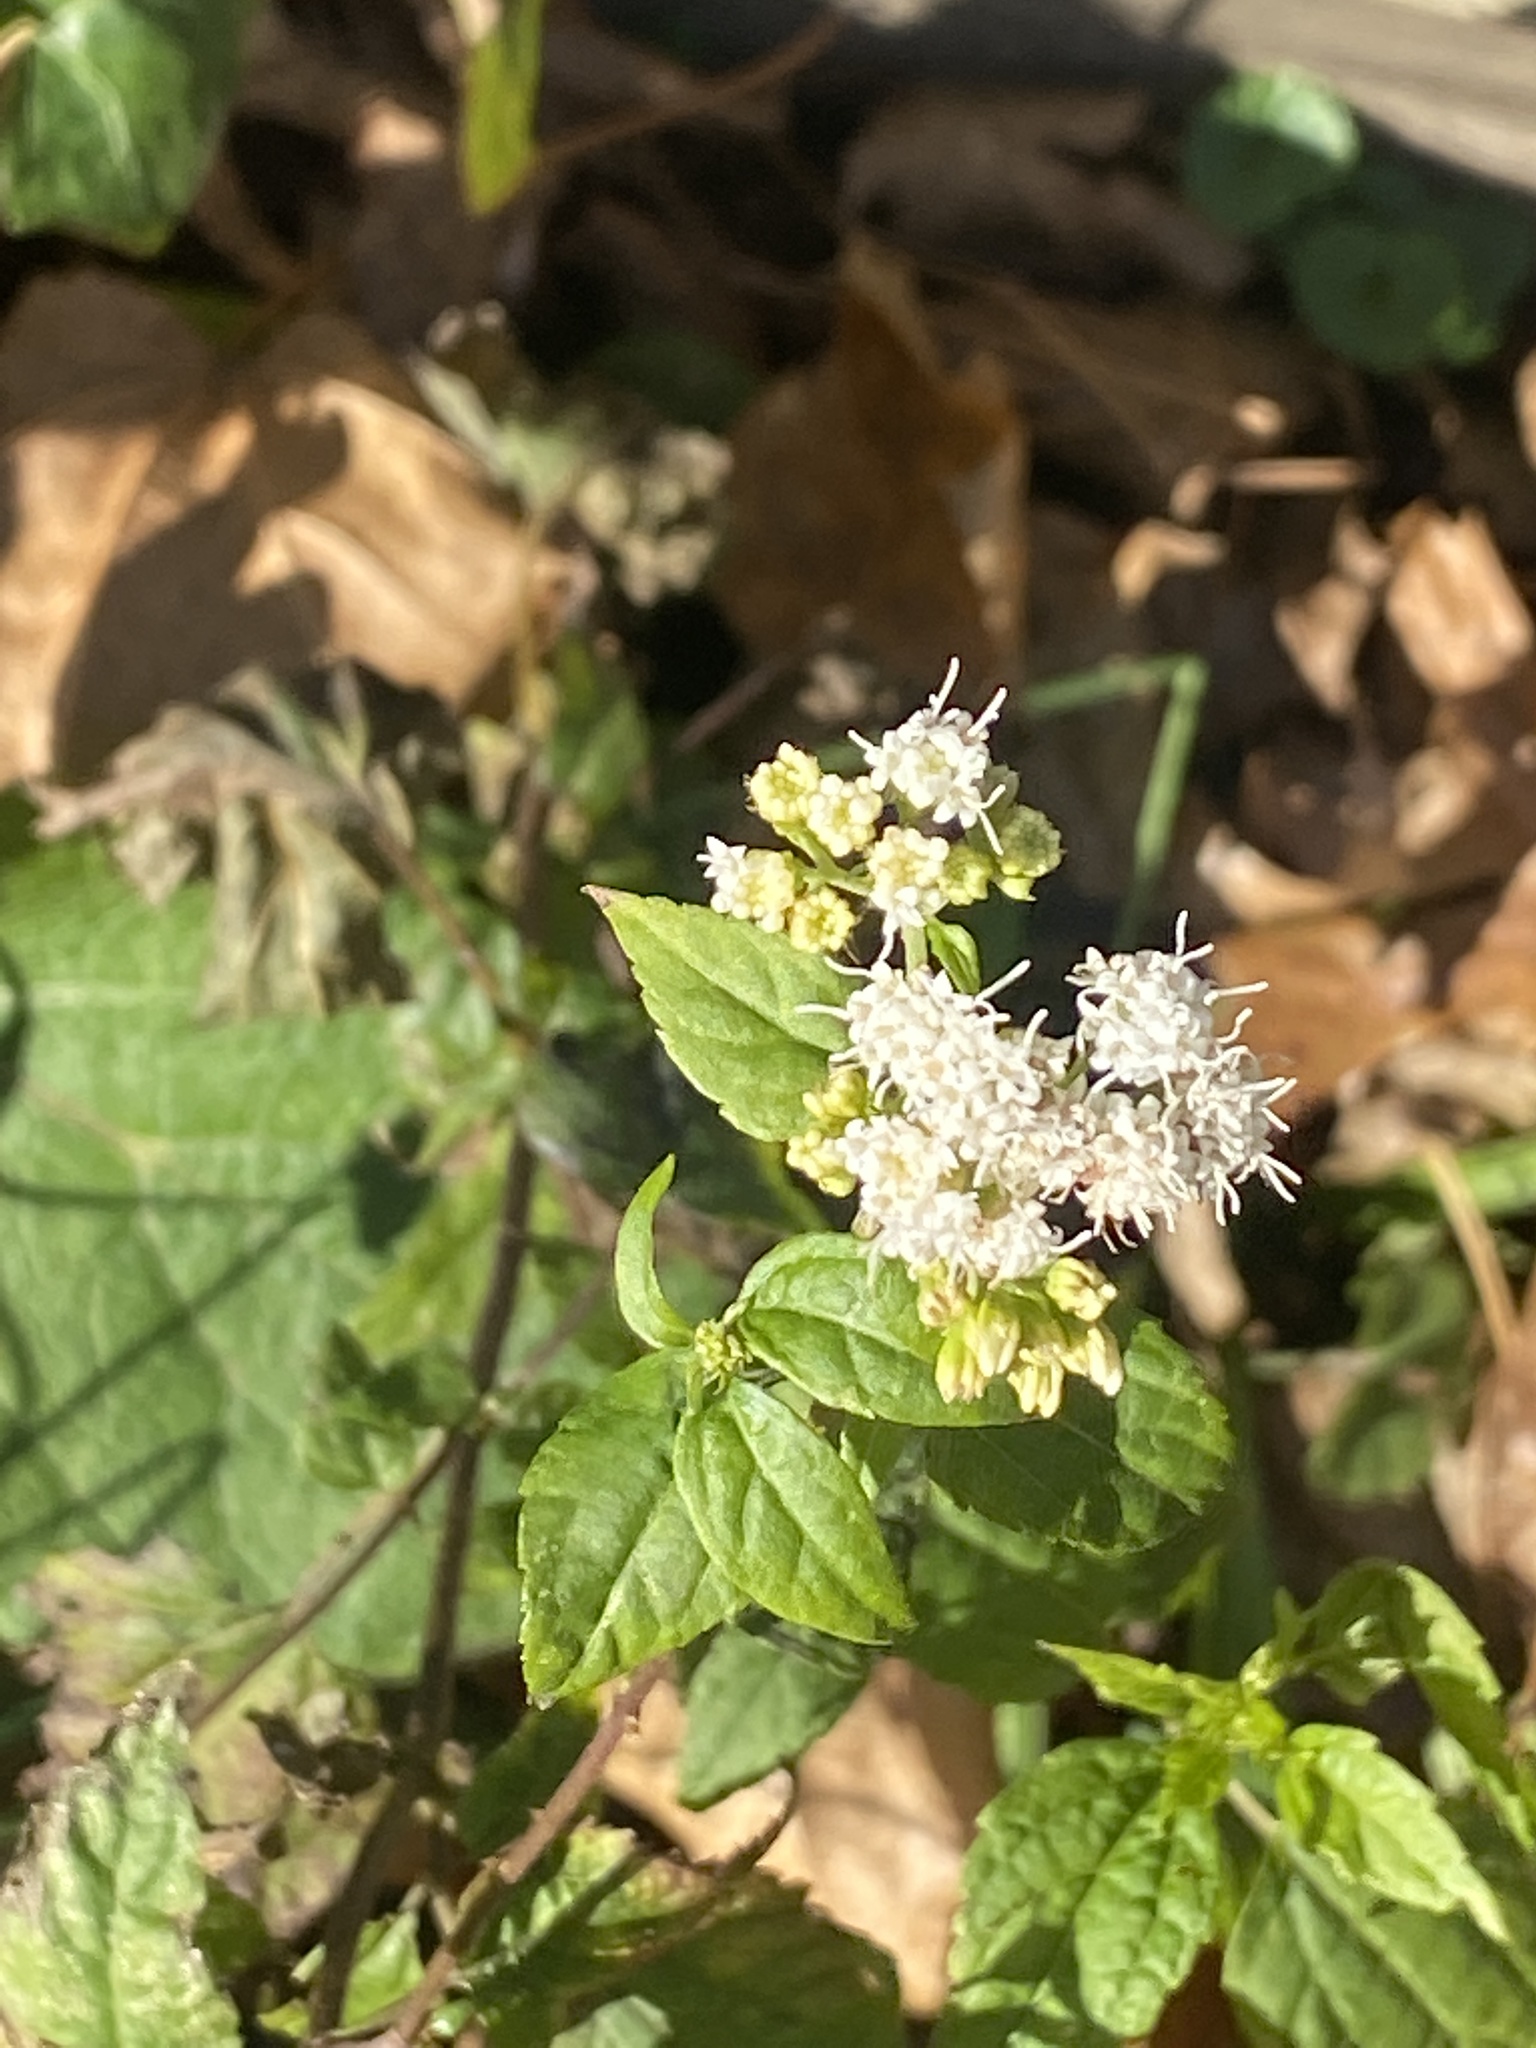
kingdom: Plantae
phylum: Tracheophyta
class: Magnoliopsida
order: Asterales
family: Asteraceae
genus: Ageratina
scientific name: Ageratina altissima
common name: White snakeroot
